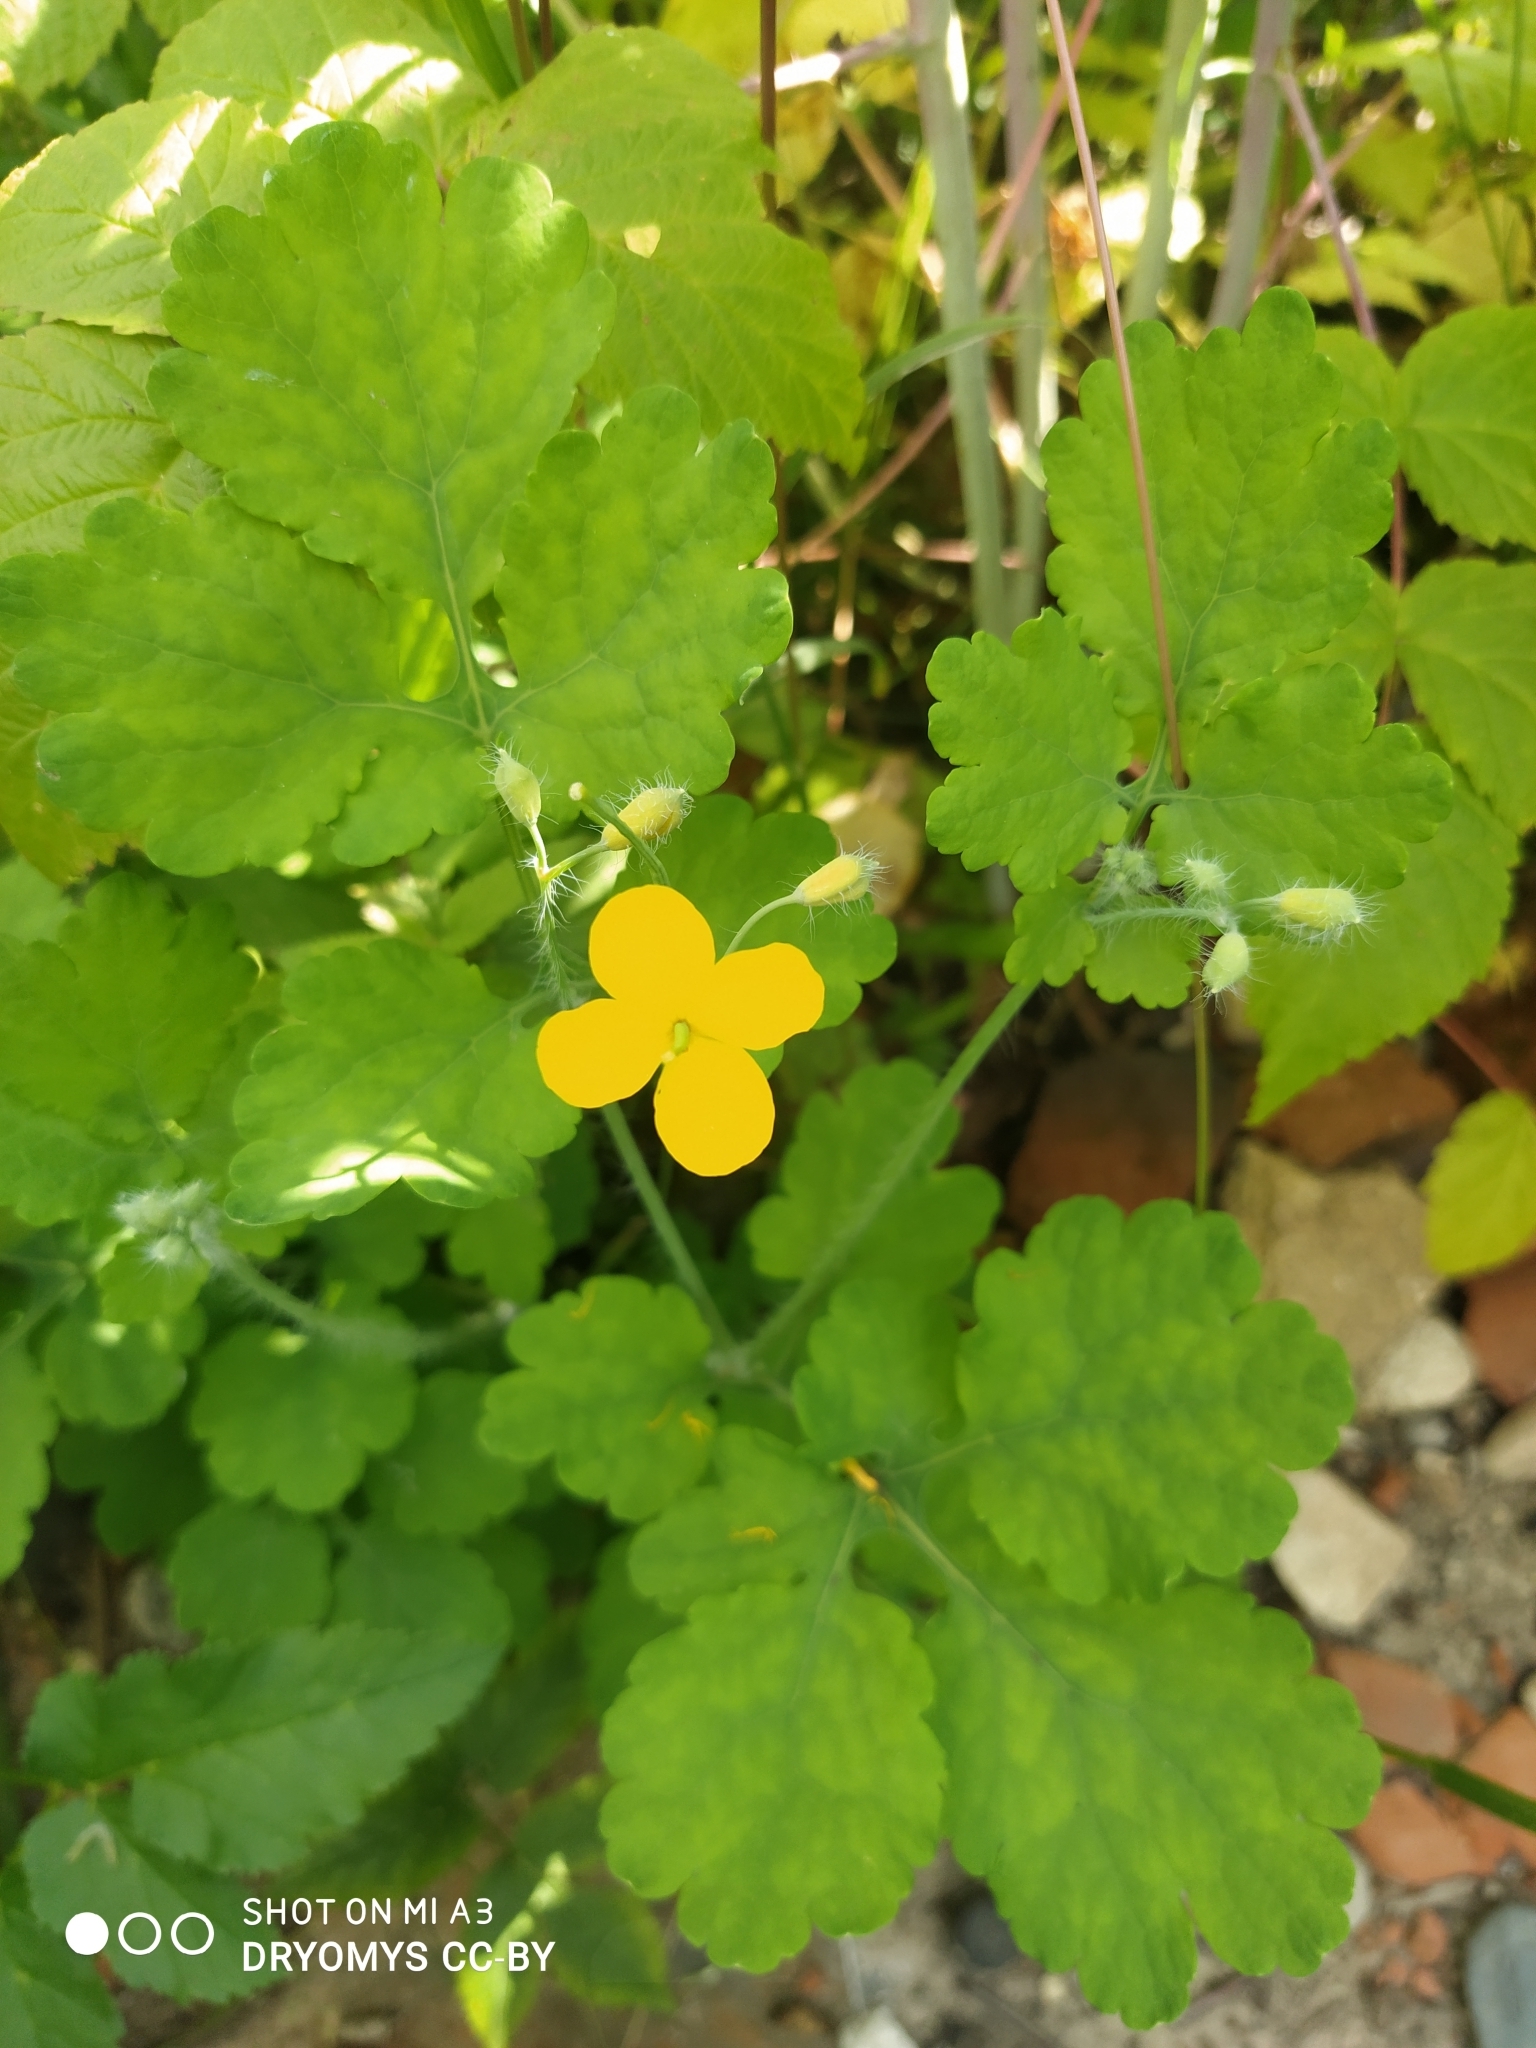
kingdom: Plantae
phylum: Tracheophyta
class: Magnoliopsida
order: Ranunculales
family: Papaveraceae
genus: Chelidonium
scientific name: Chelidonium majus
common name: Greater celandine
